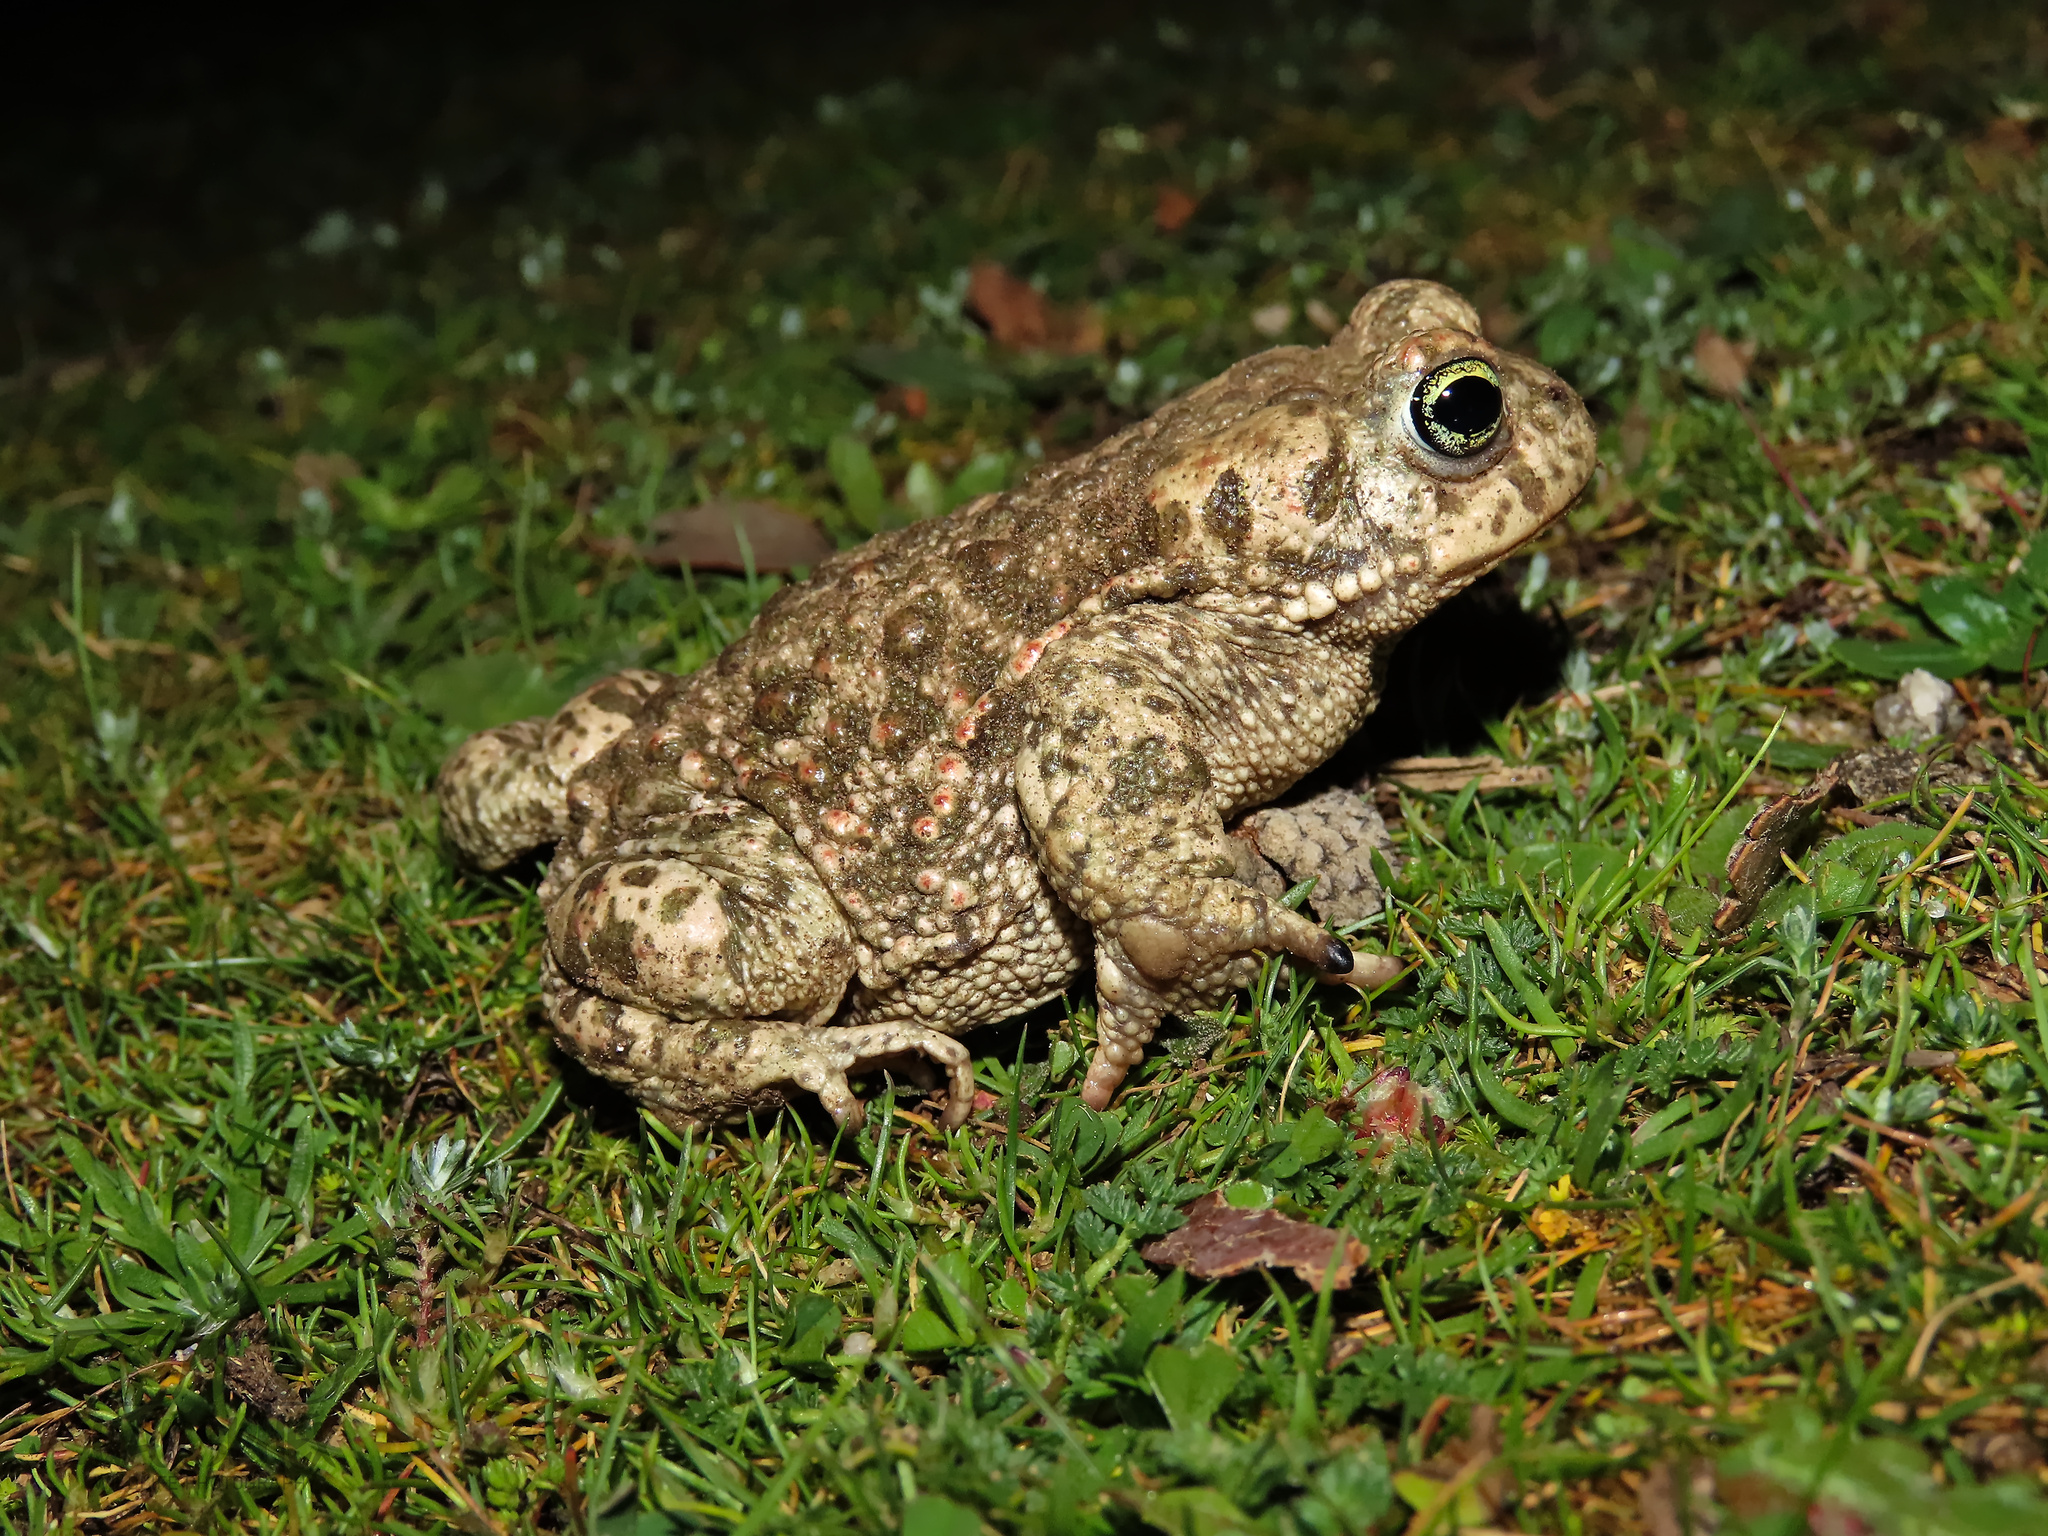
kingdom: Animalia
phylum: Chordata
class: Amphibia
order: Anura
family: Bufonidae
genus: Epidalea
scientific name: Epidalea calamita
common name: Natterjack toad
